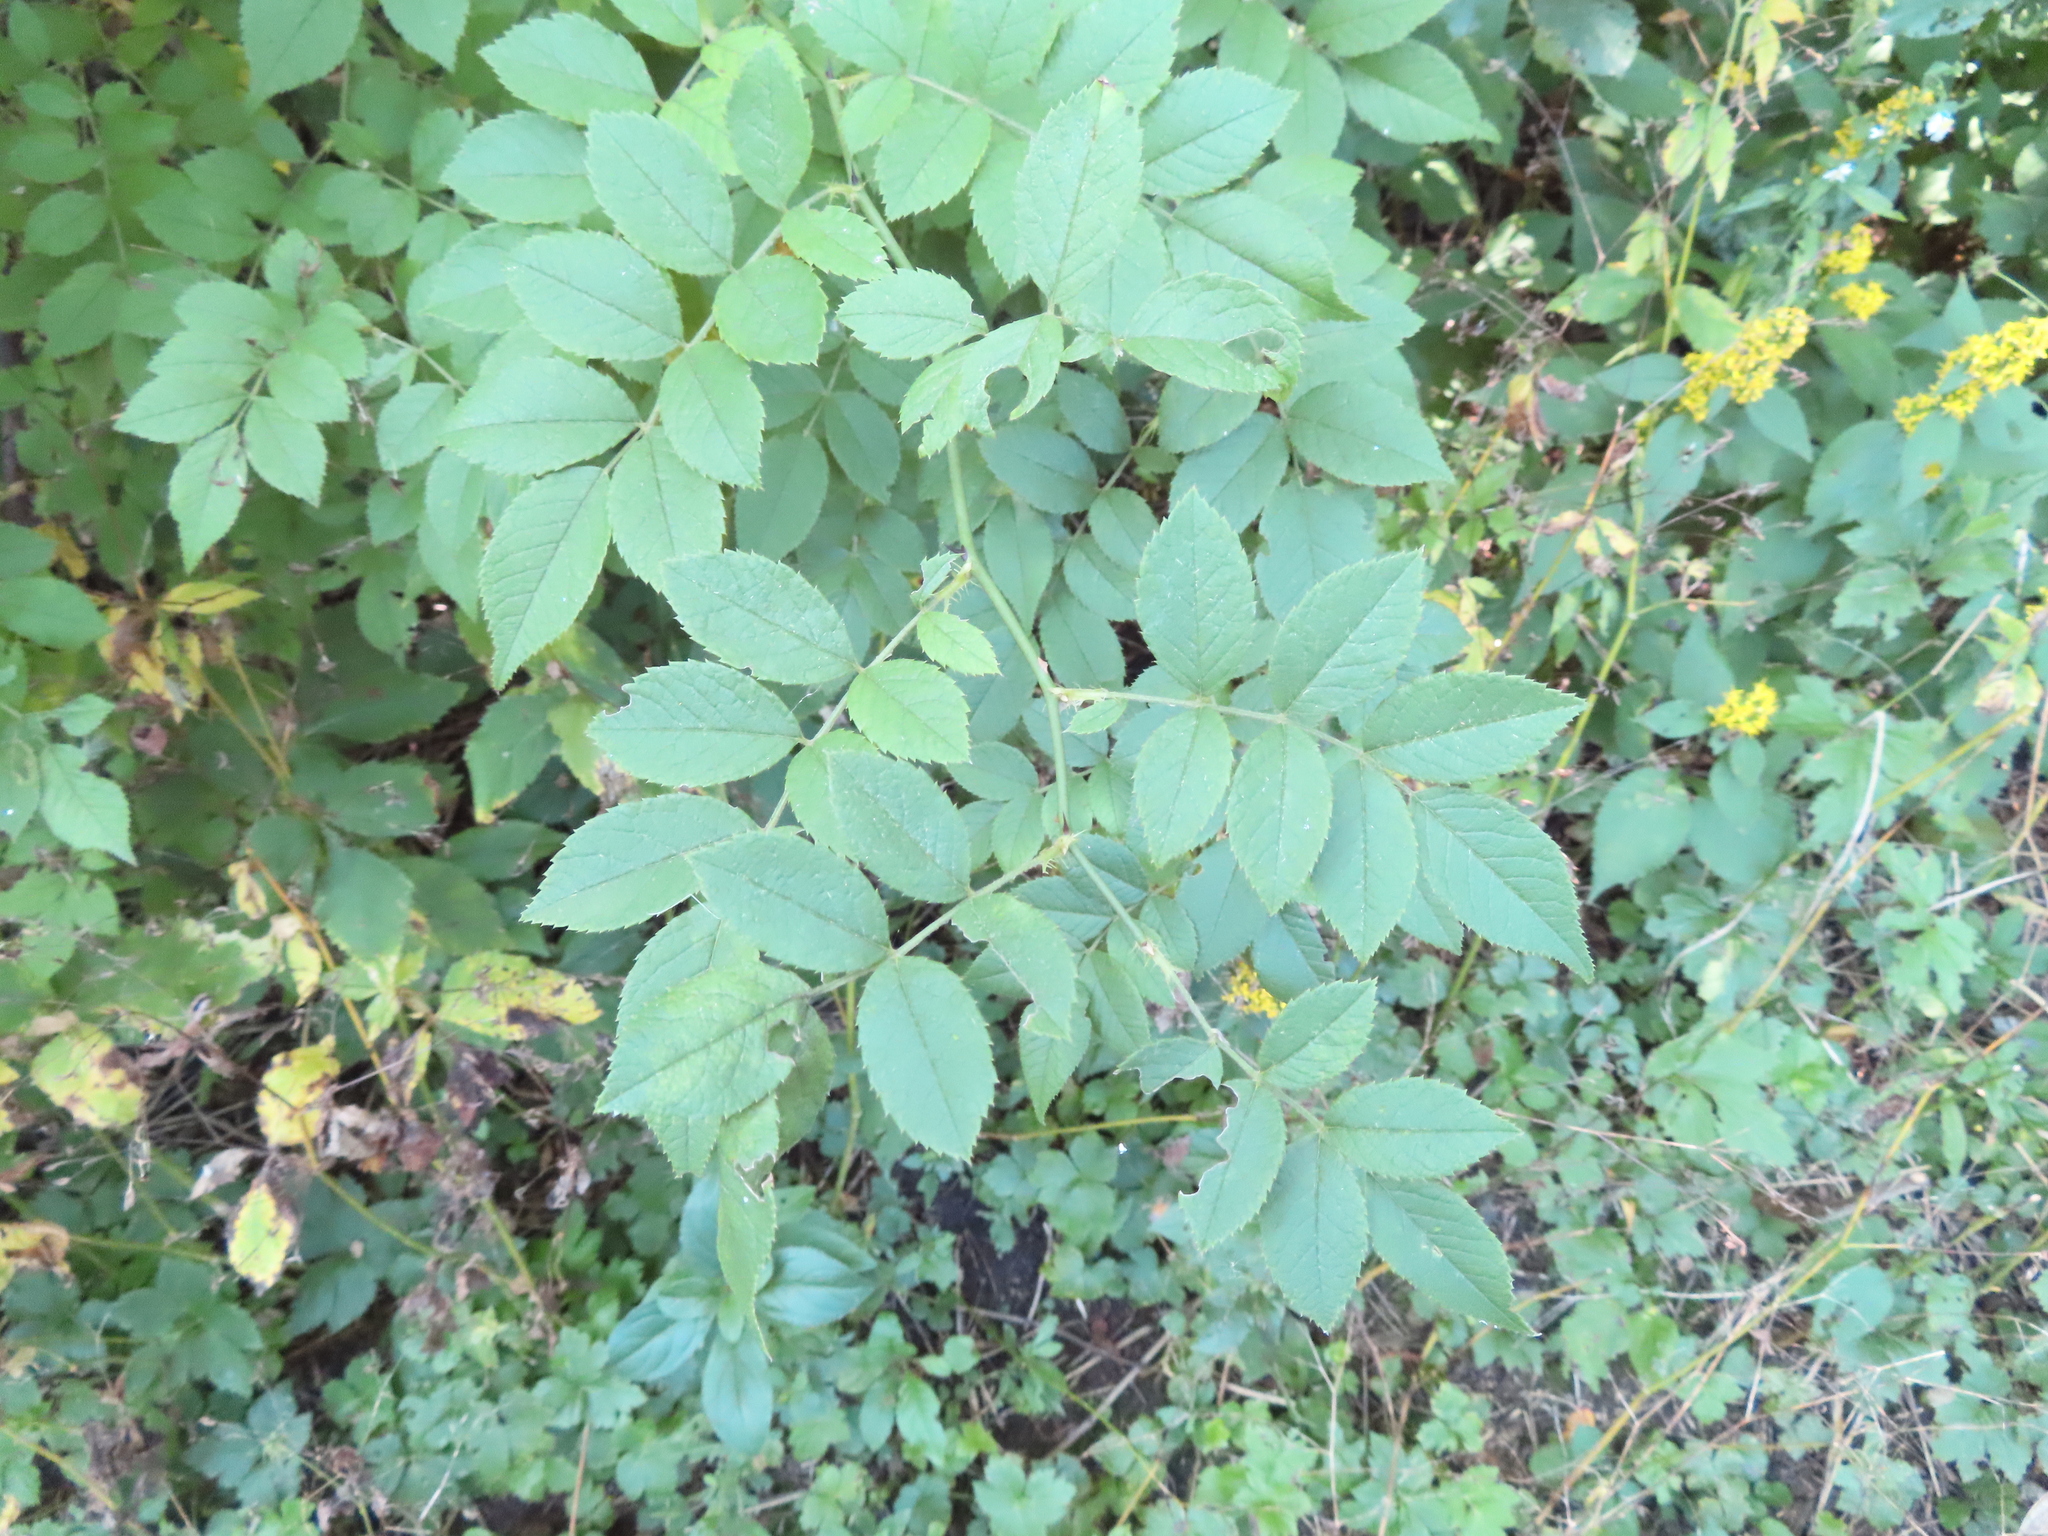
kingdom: Plantae
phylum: Tracheophyta
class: Magnoliopsida
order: Rosales
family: Rosaceae
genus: Rosa
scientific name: Rosa multiflora
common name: Multiflora rose
